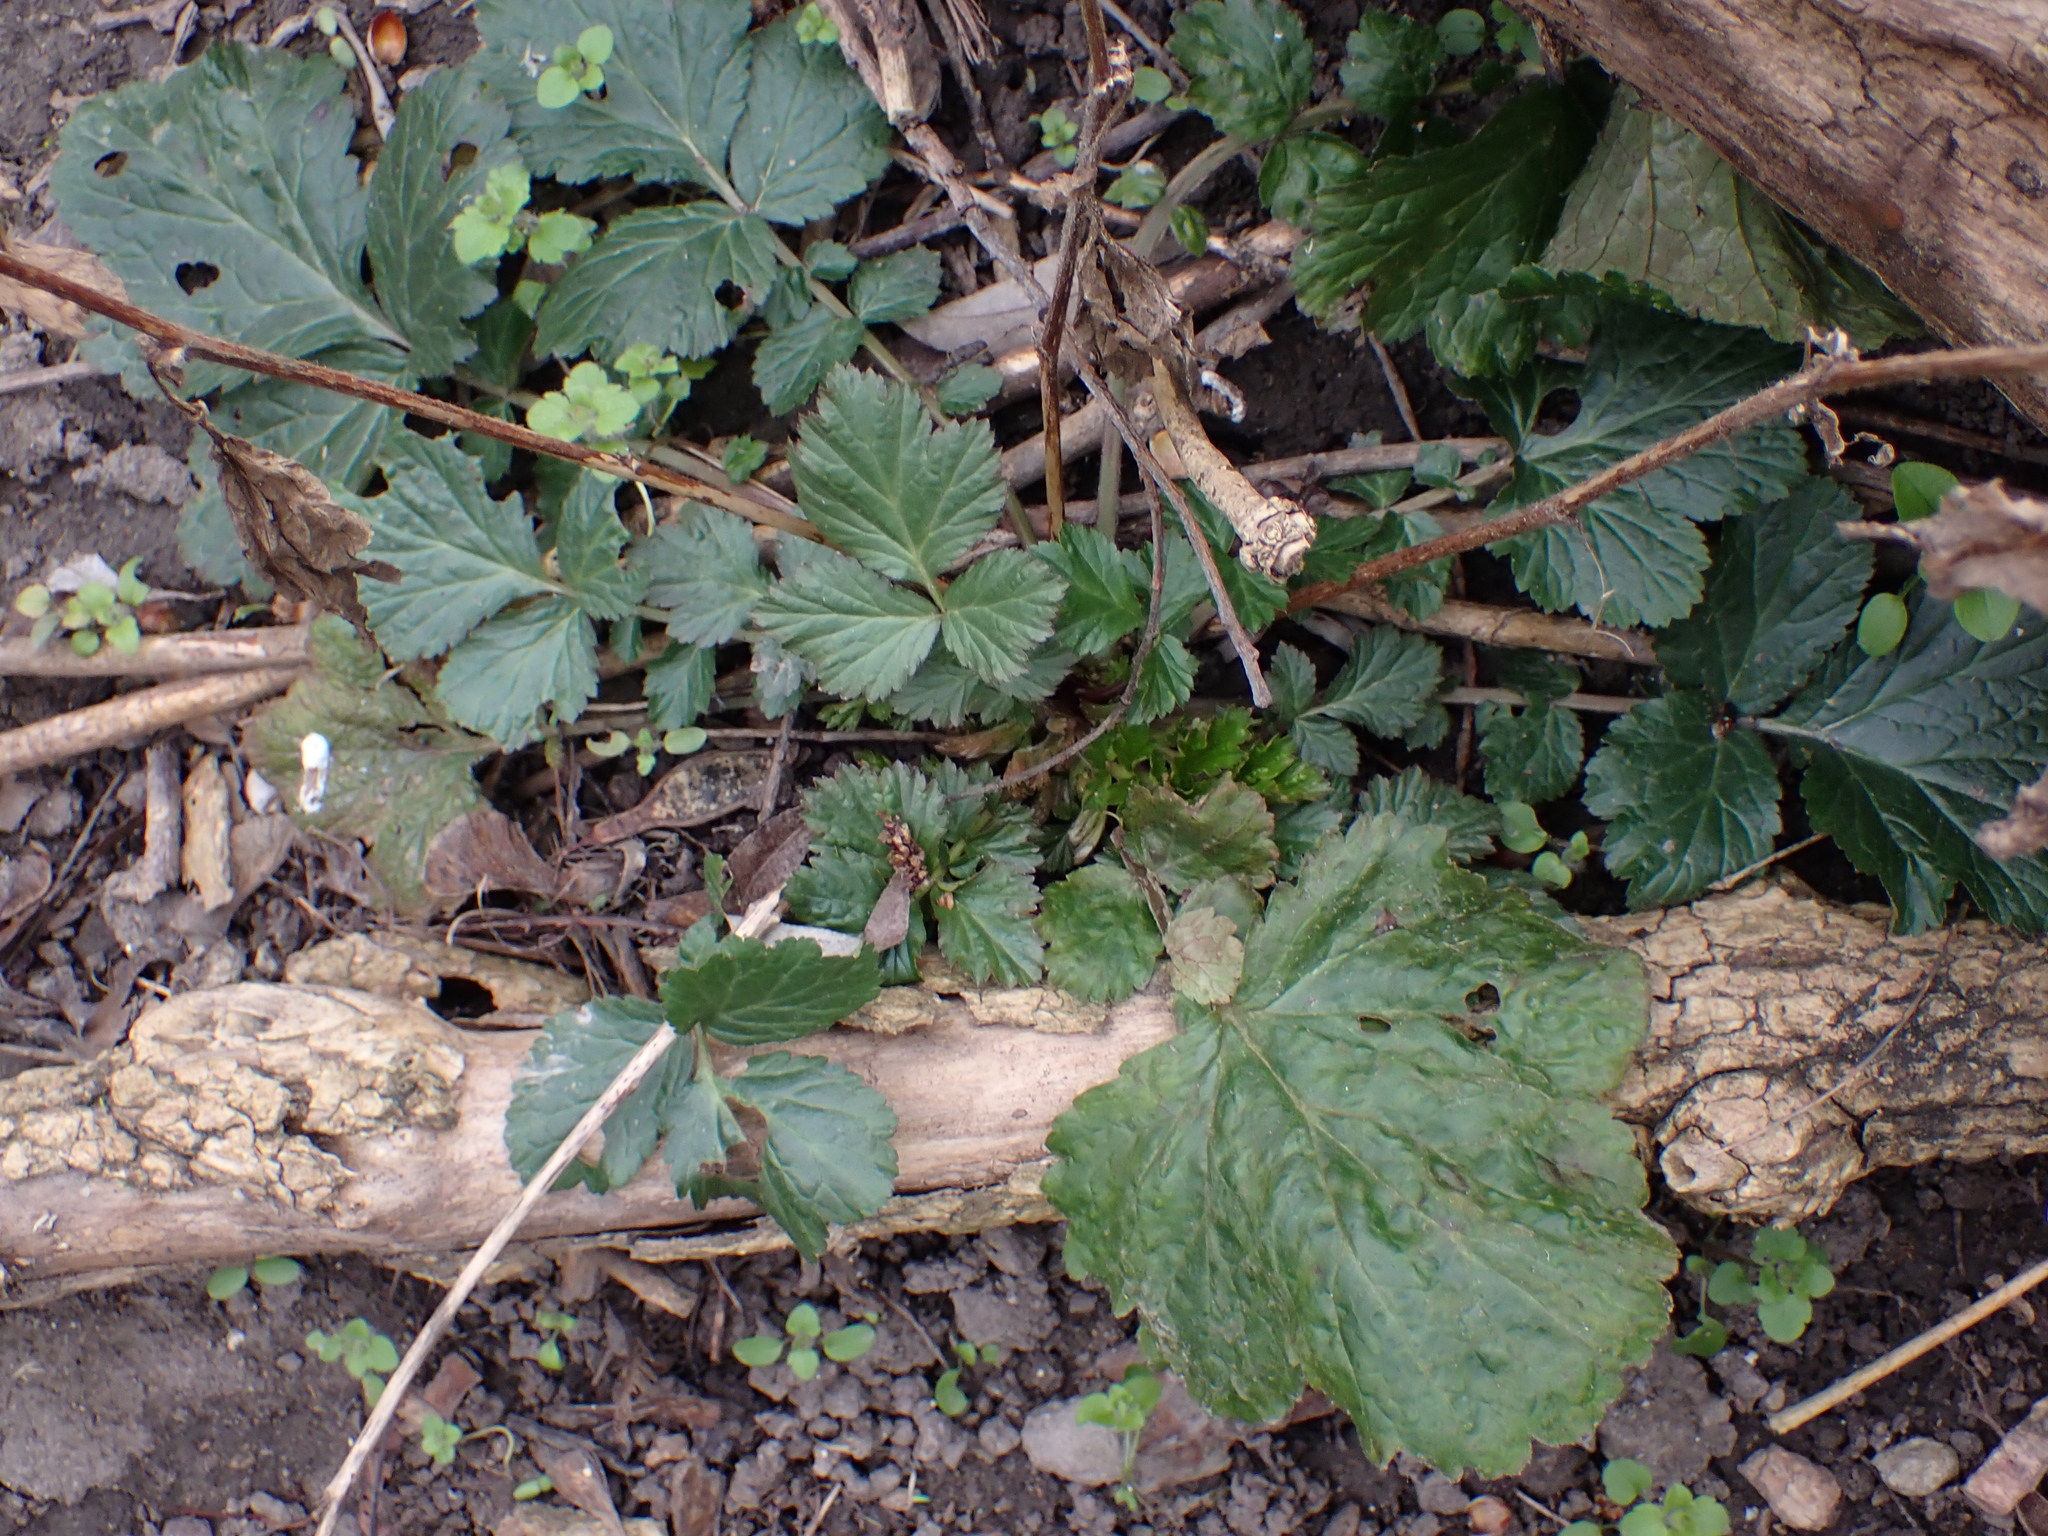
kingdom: Plantae
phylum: Tracheophyta
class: Magnoliopsida
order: Rosales
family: Rosaceae
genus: Geum
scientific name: Geum urbanum
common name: Wood avens
